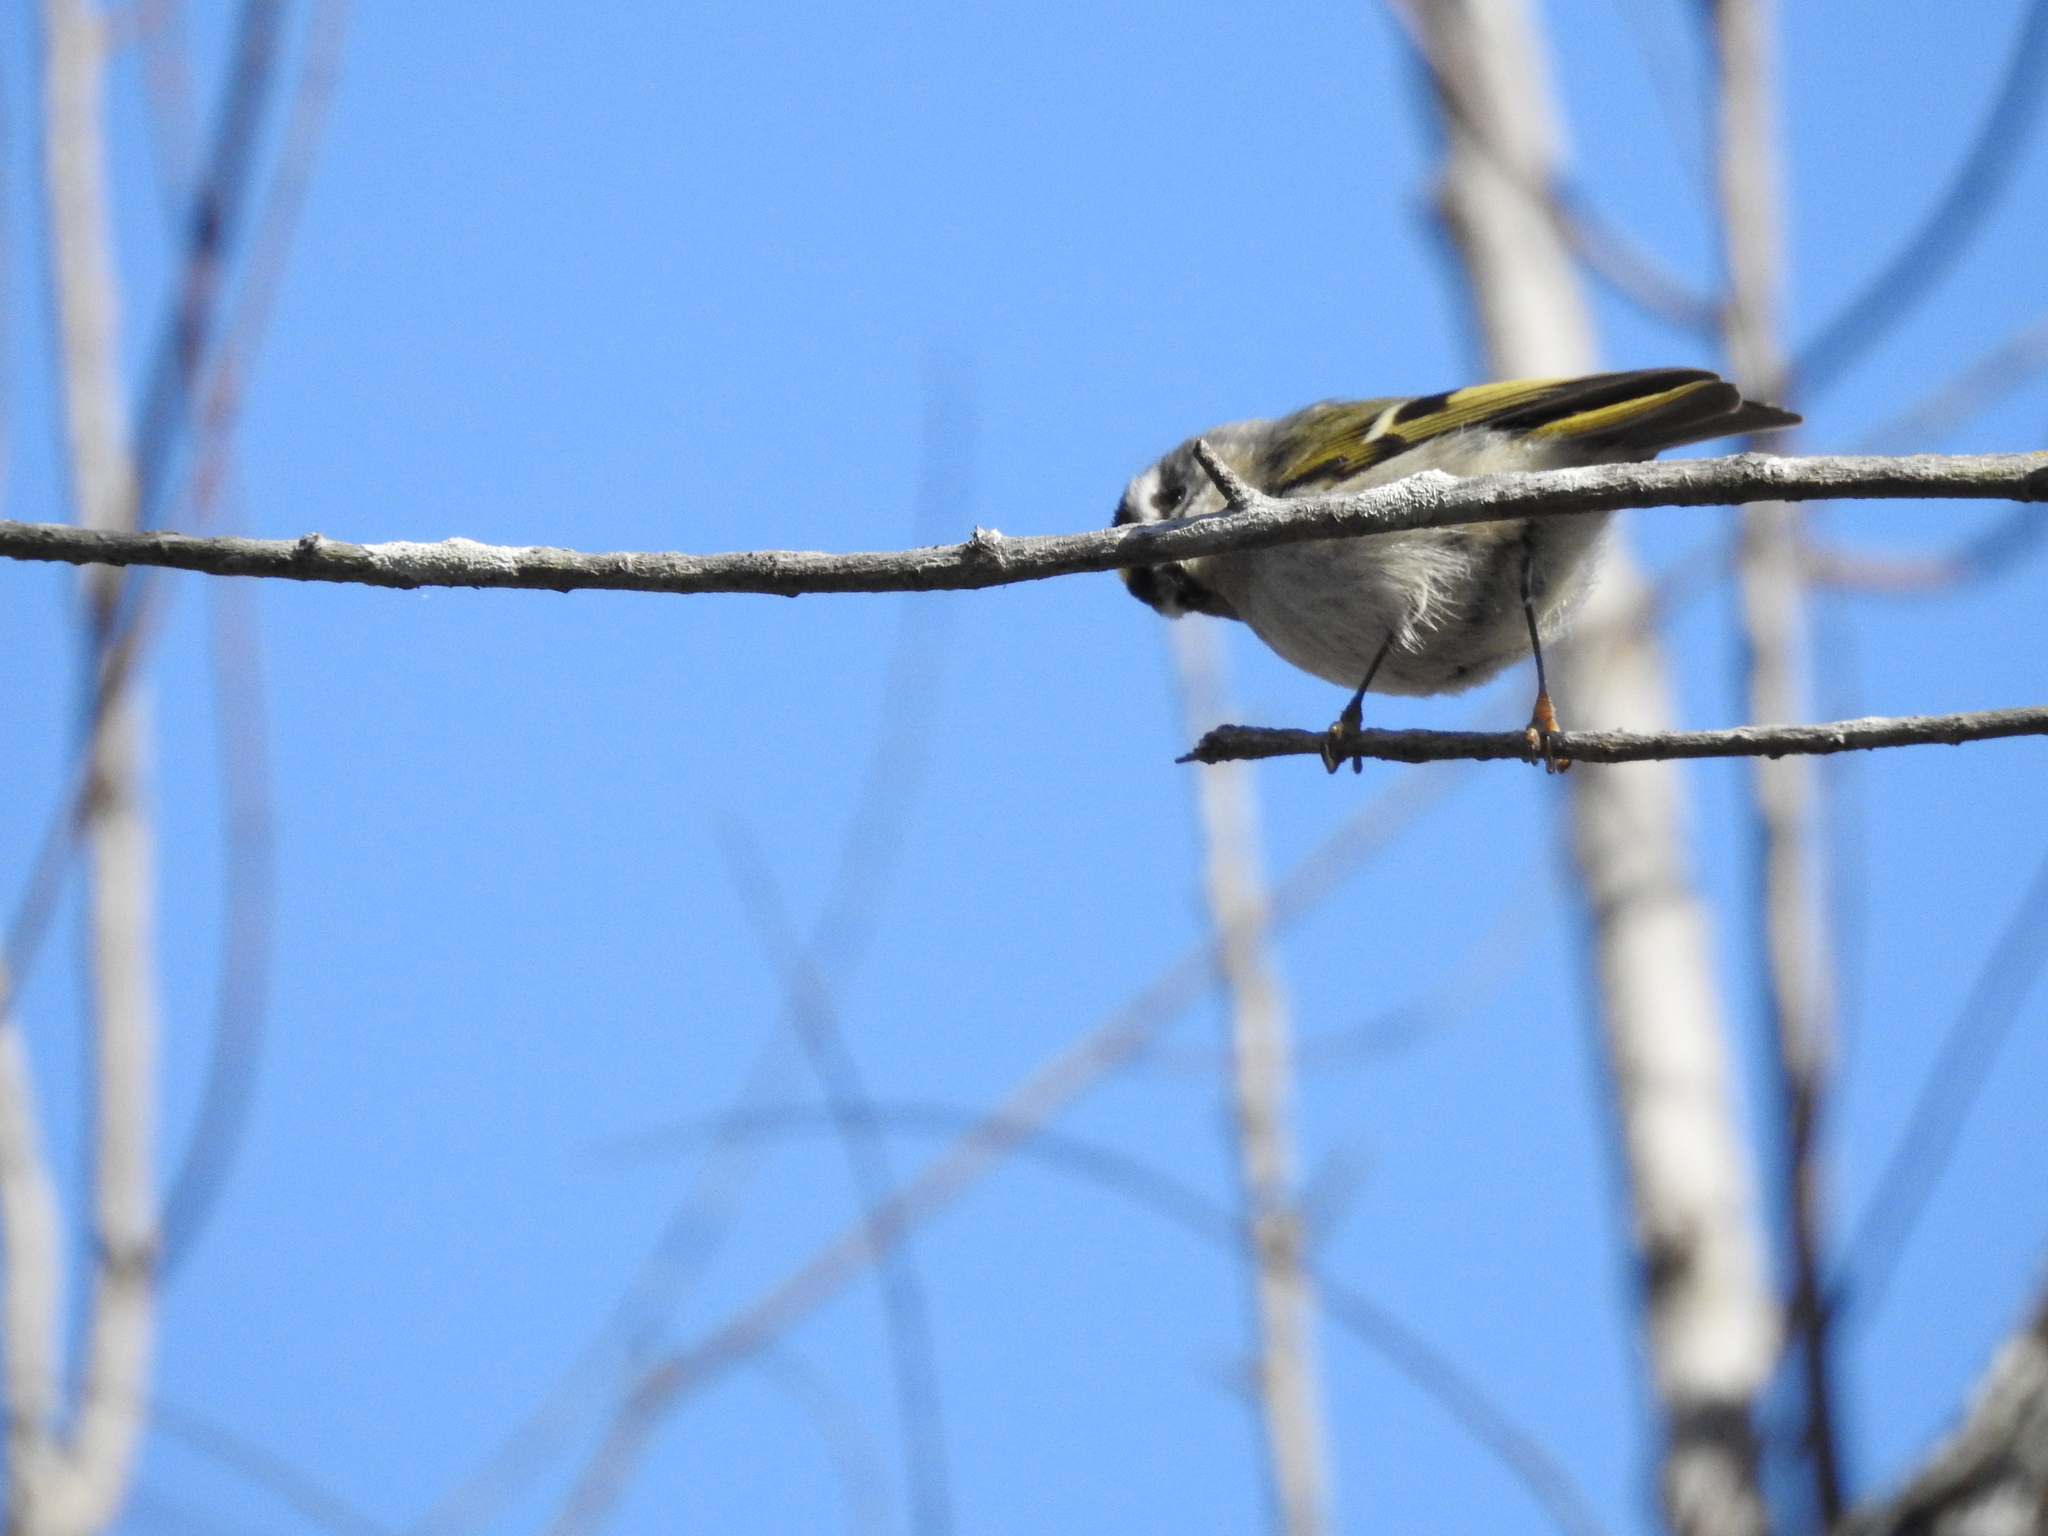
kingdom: Animalia
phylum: Chordata
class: Aves
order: Passeriformes
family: Regulidae
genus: Regulus
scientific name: Regulus satrapa
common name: Golden-crowned kinglet
